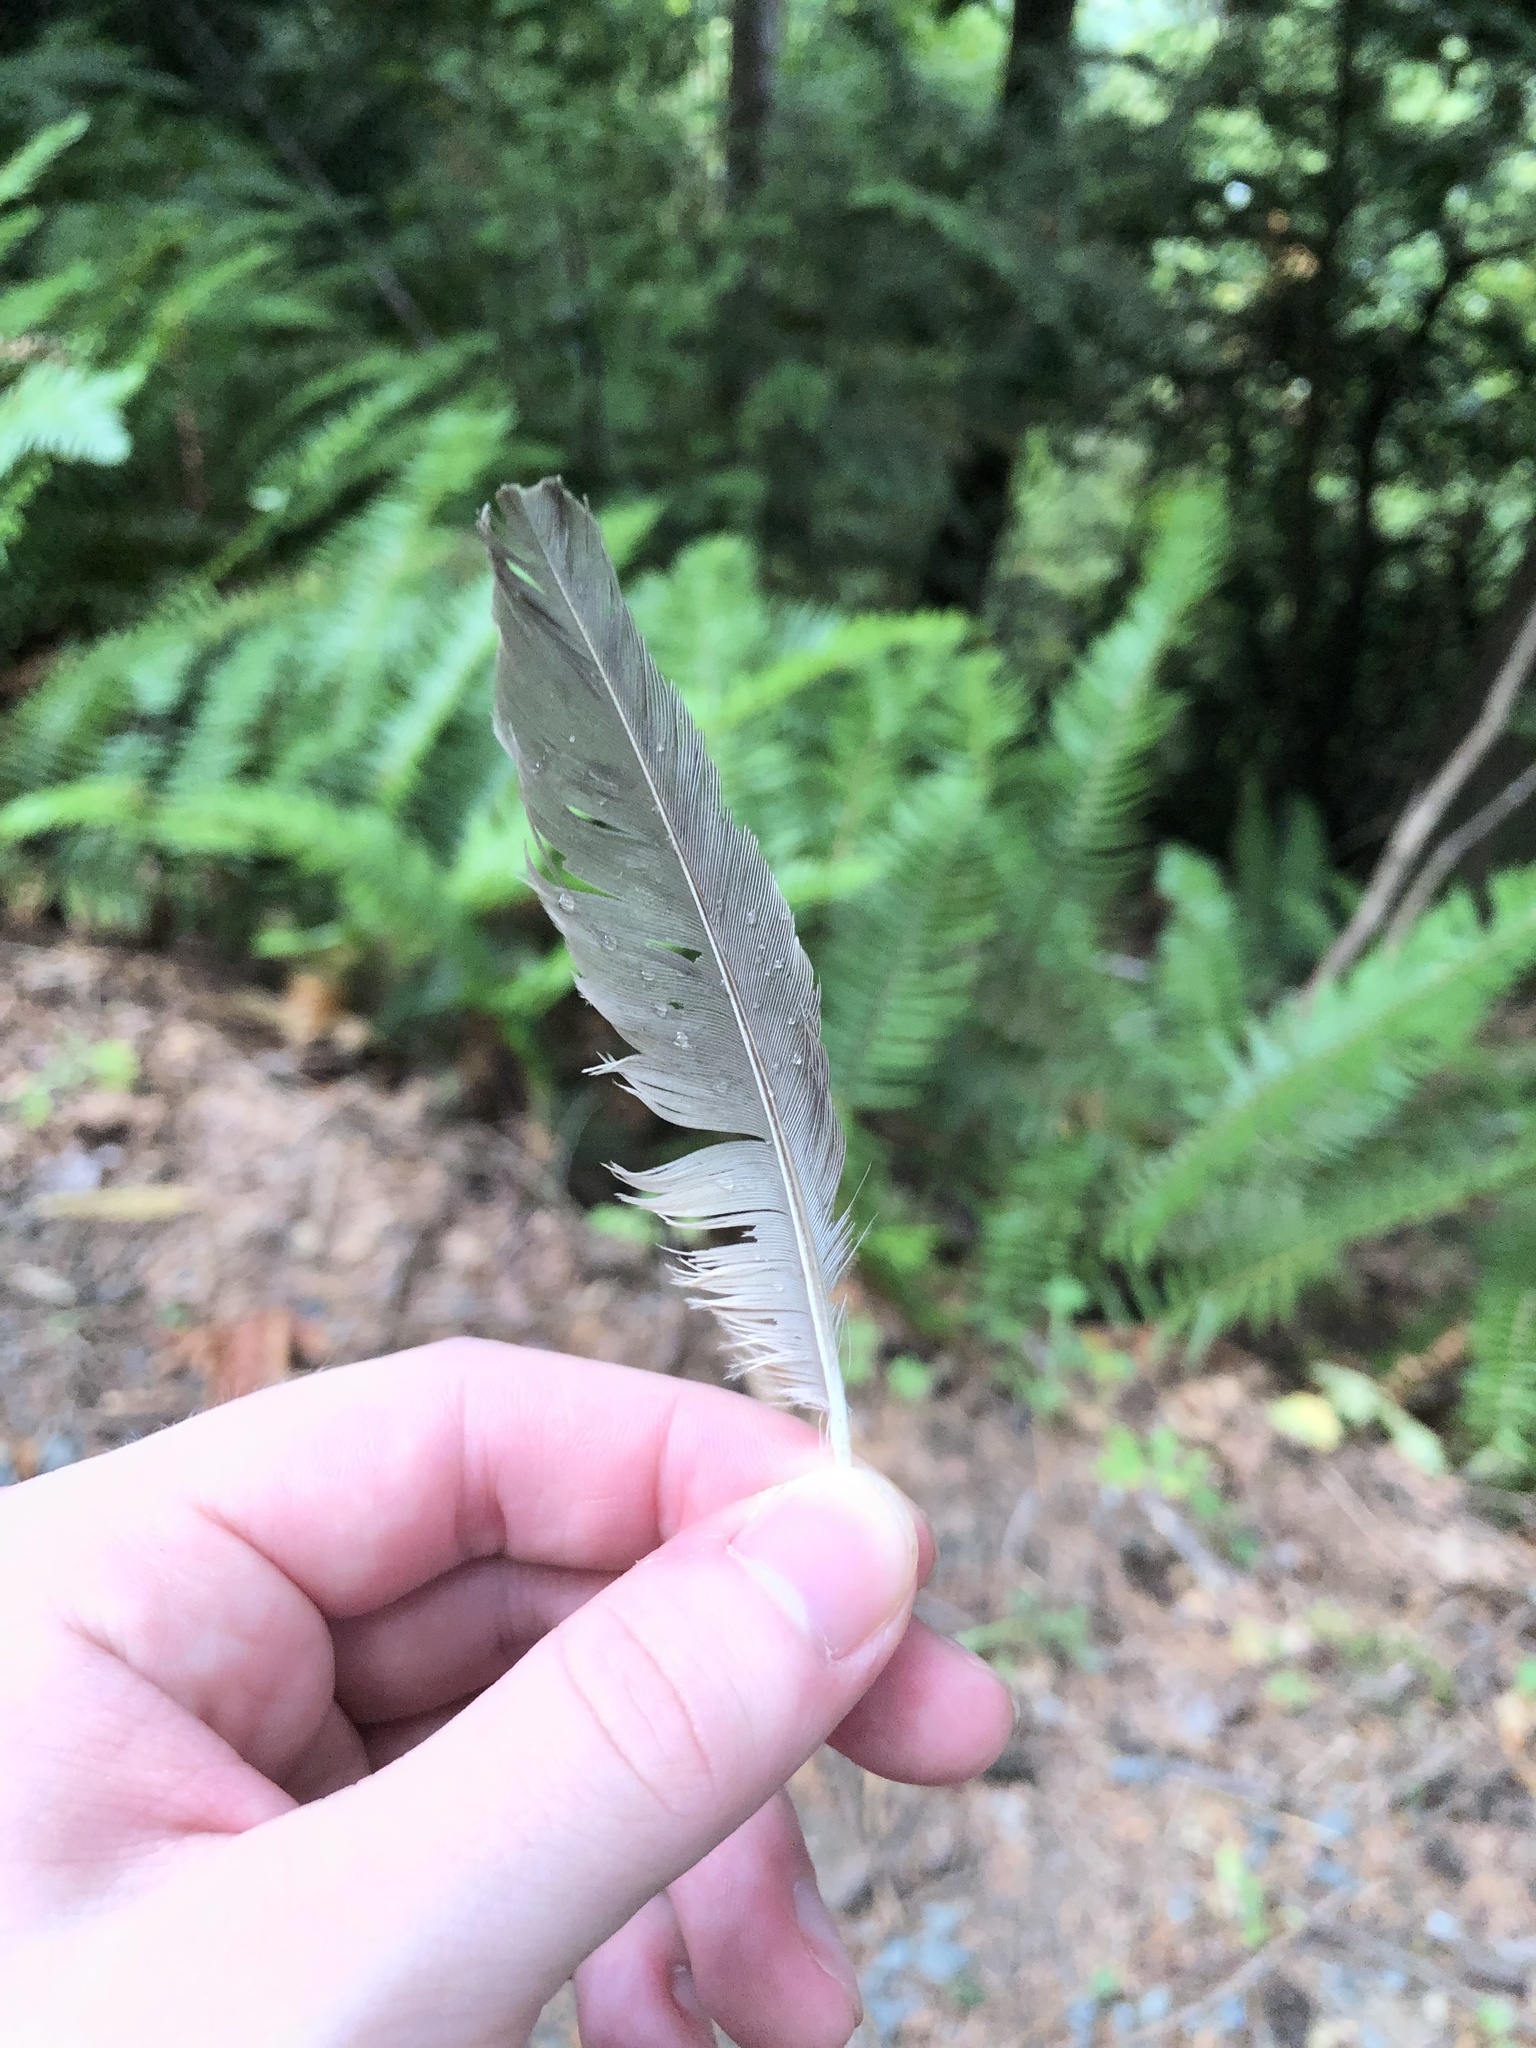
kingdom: Animalia
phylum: Chordata
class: Aves
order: Passeriformes
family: Turdidae
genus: Turdus
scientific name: Turdus migratorius
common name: American robin
